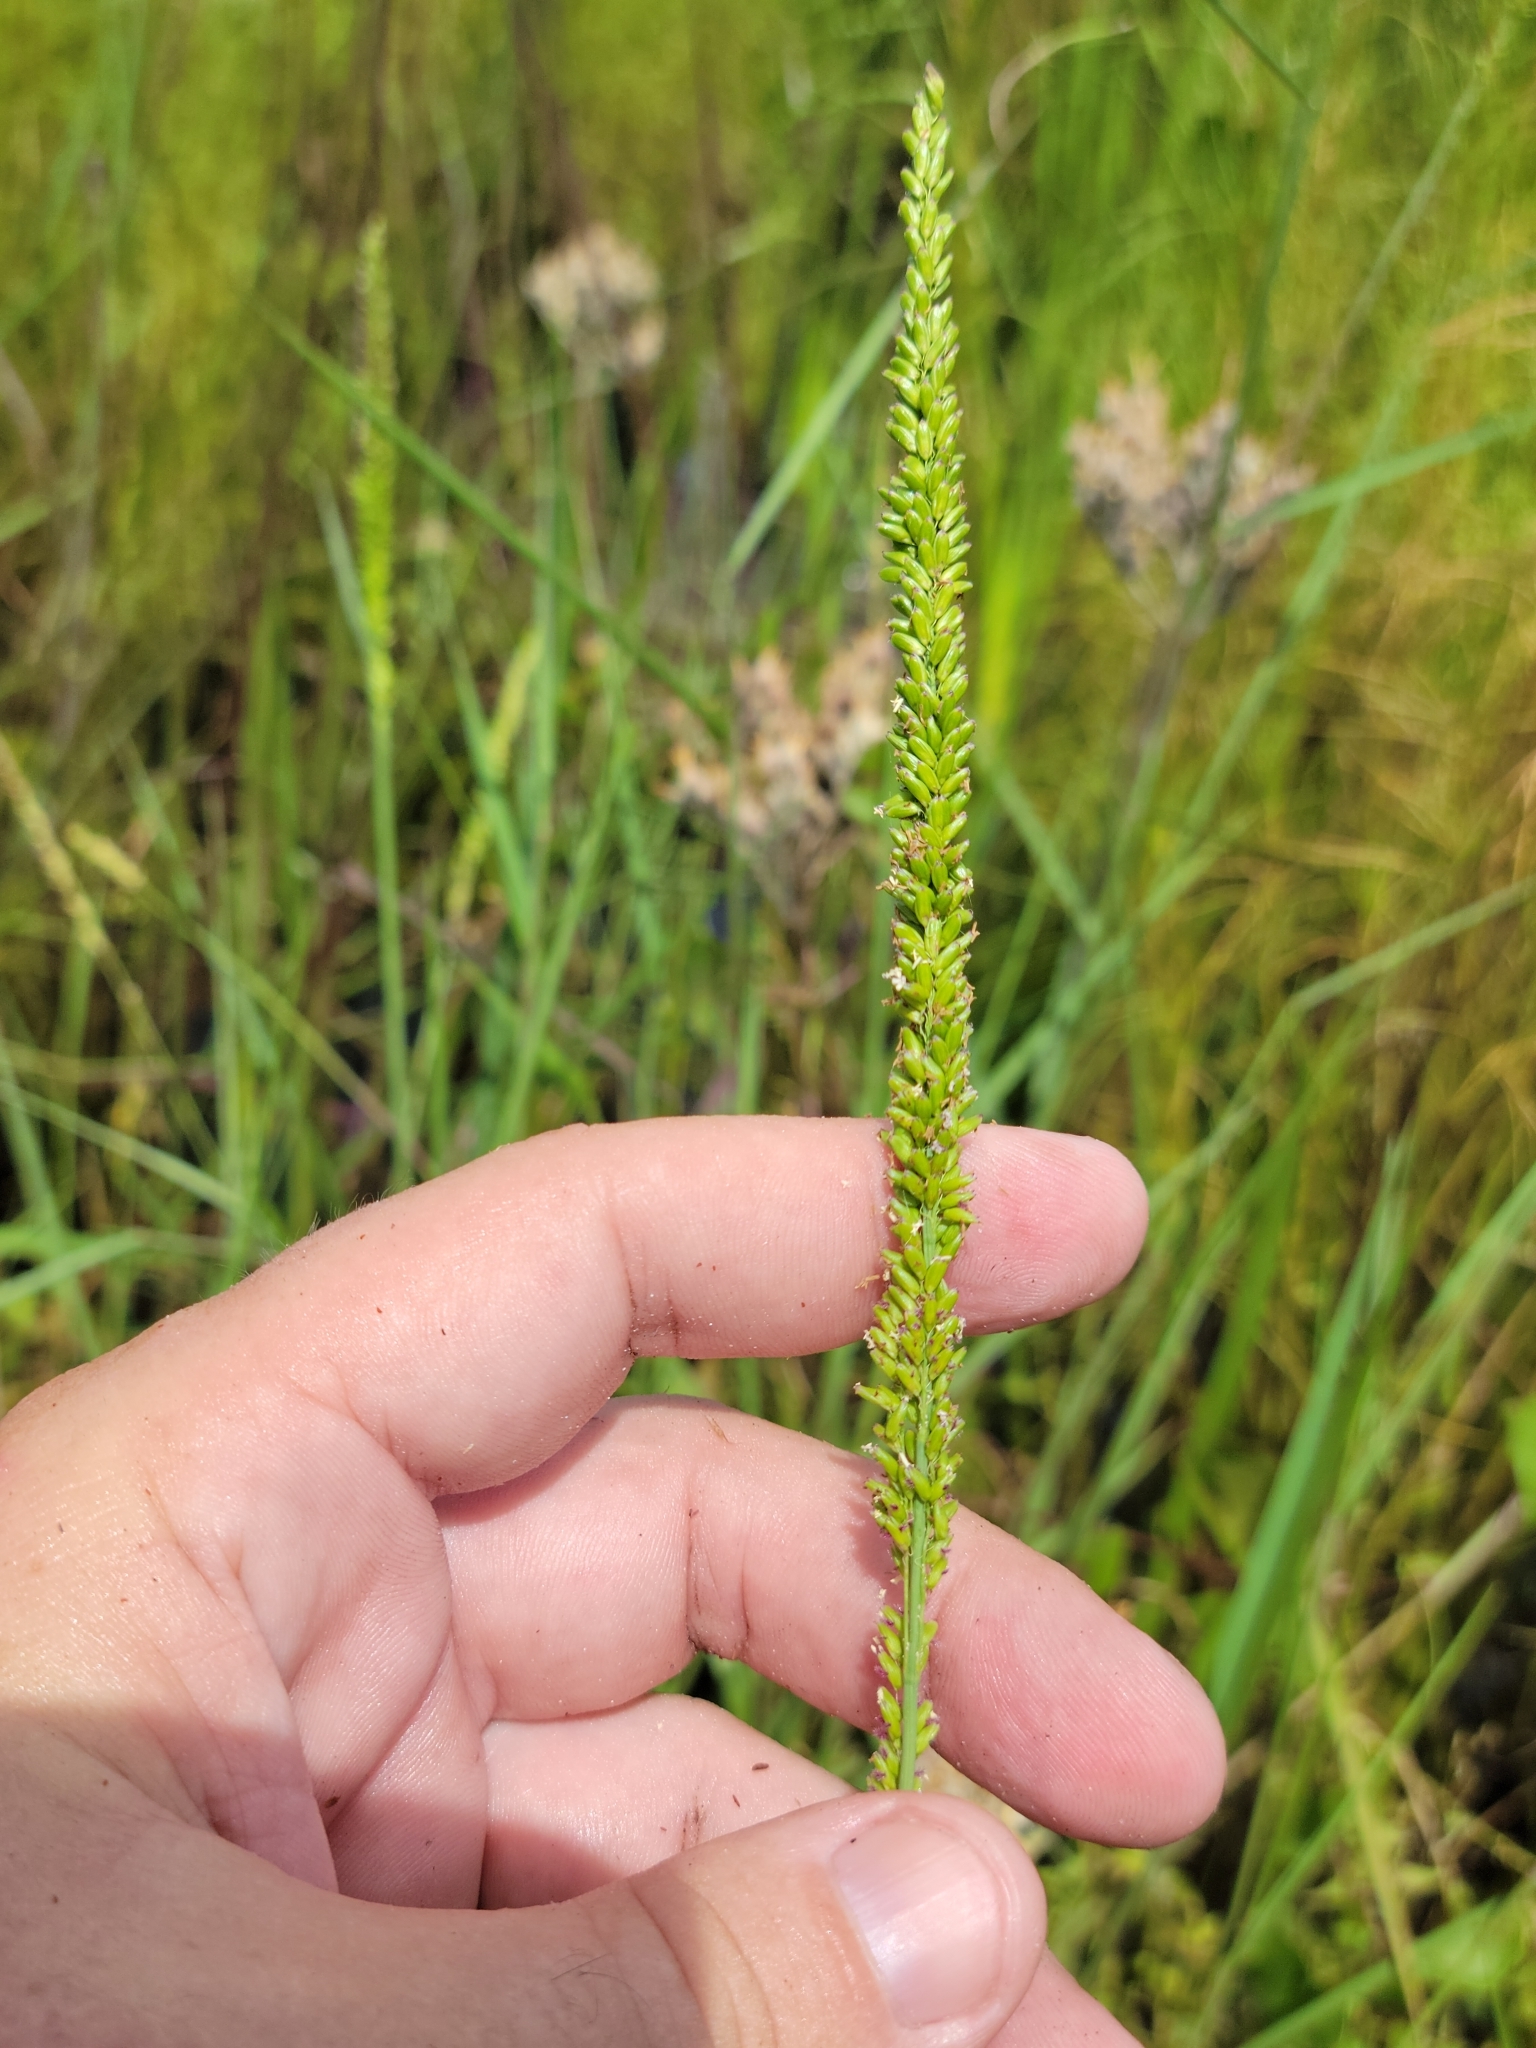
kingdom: Plantae
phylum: Tracheophyta
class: Liliopsida
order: Poales
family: Poaceae
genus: Sacciolepis
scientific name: Sacciolepis striata
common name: American cupscale
